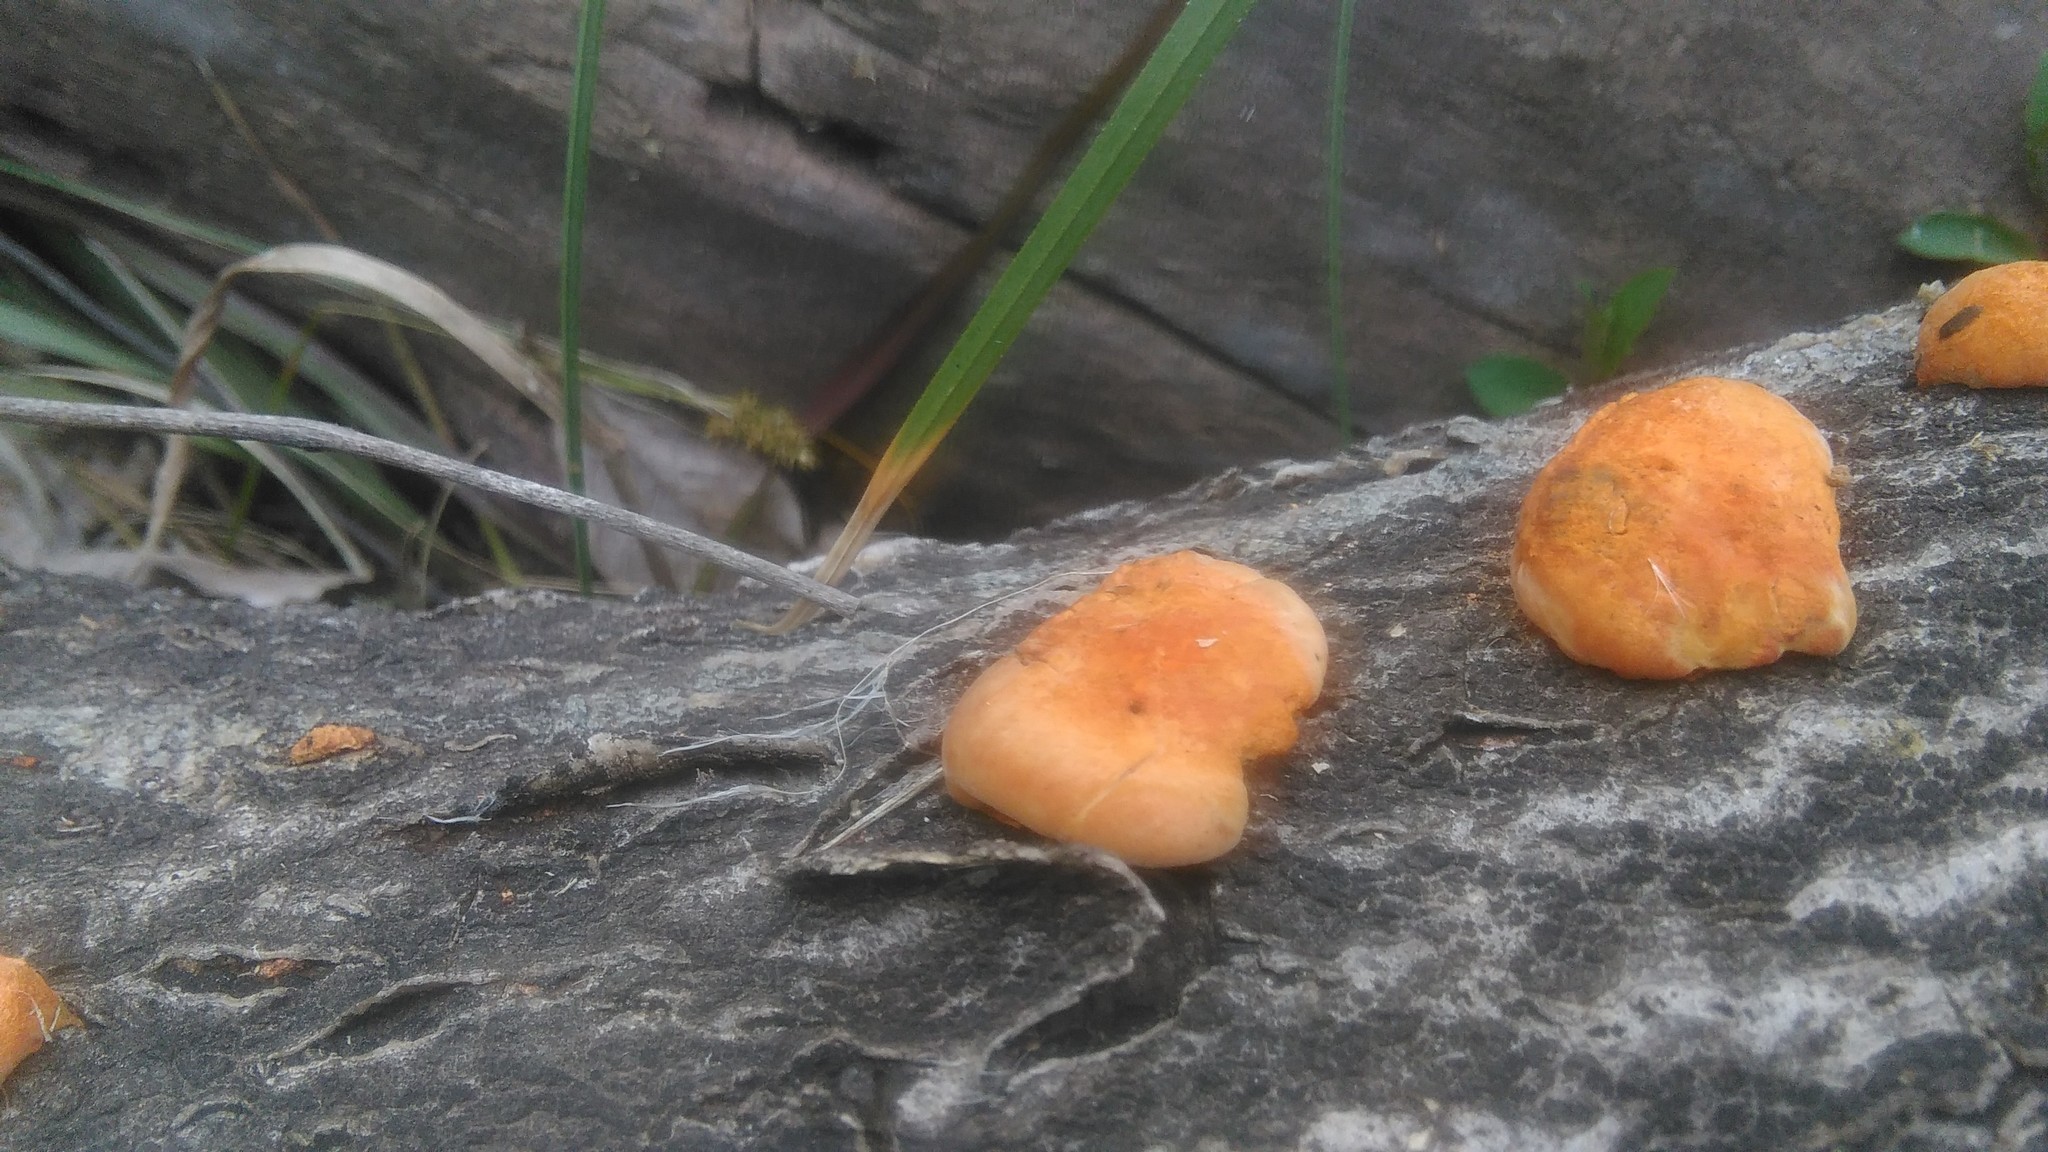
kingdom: Fungi
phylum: Basidiomycota
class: Agaricomycetes
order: Polyporales
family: Polyporaceae
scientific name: Polyporaceae
